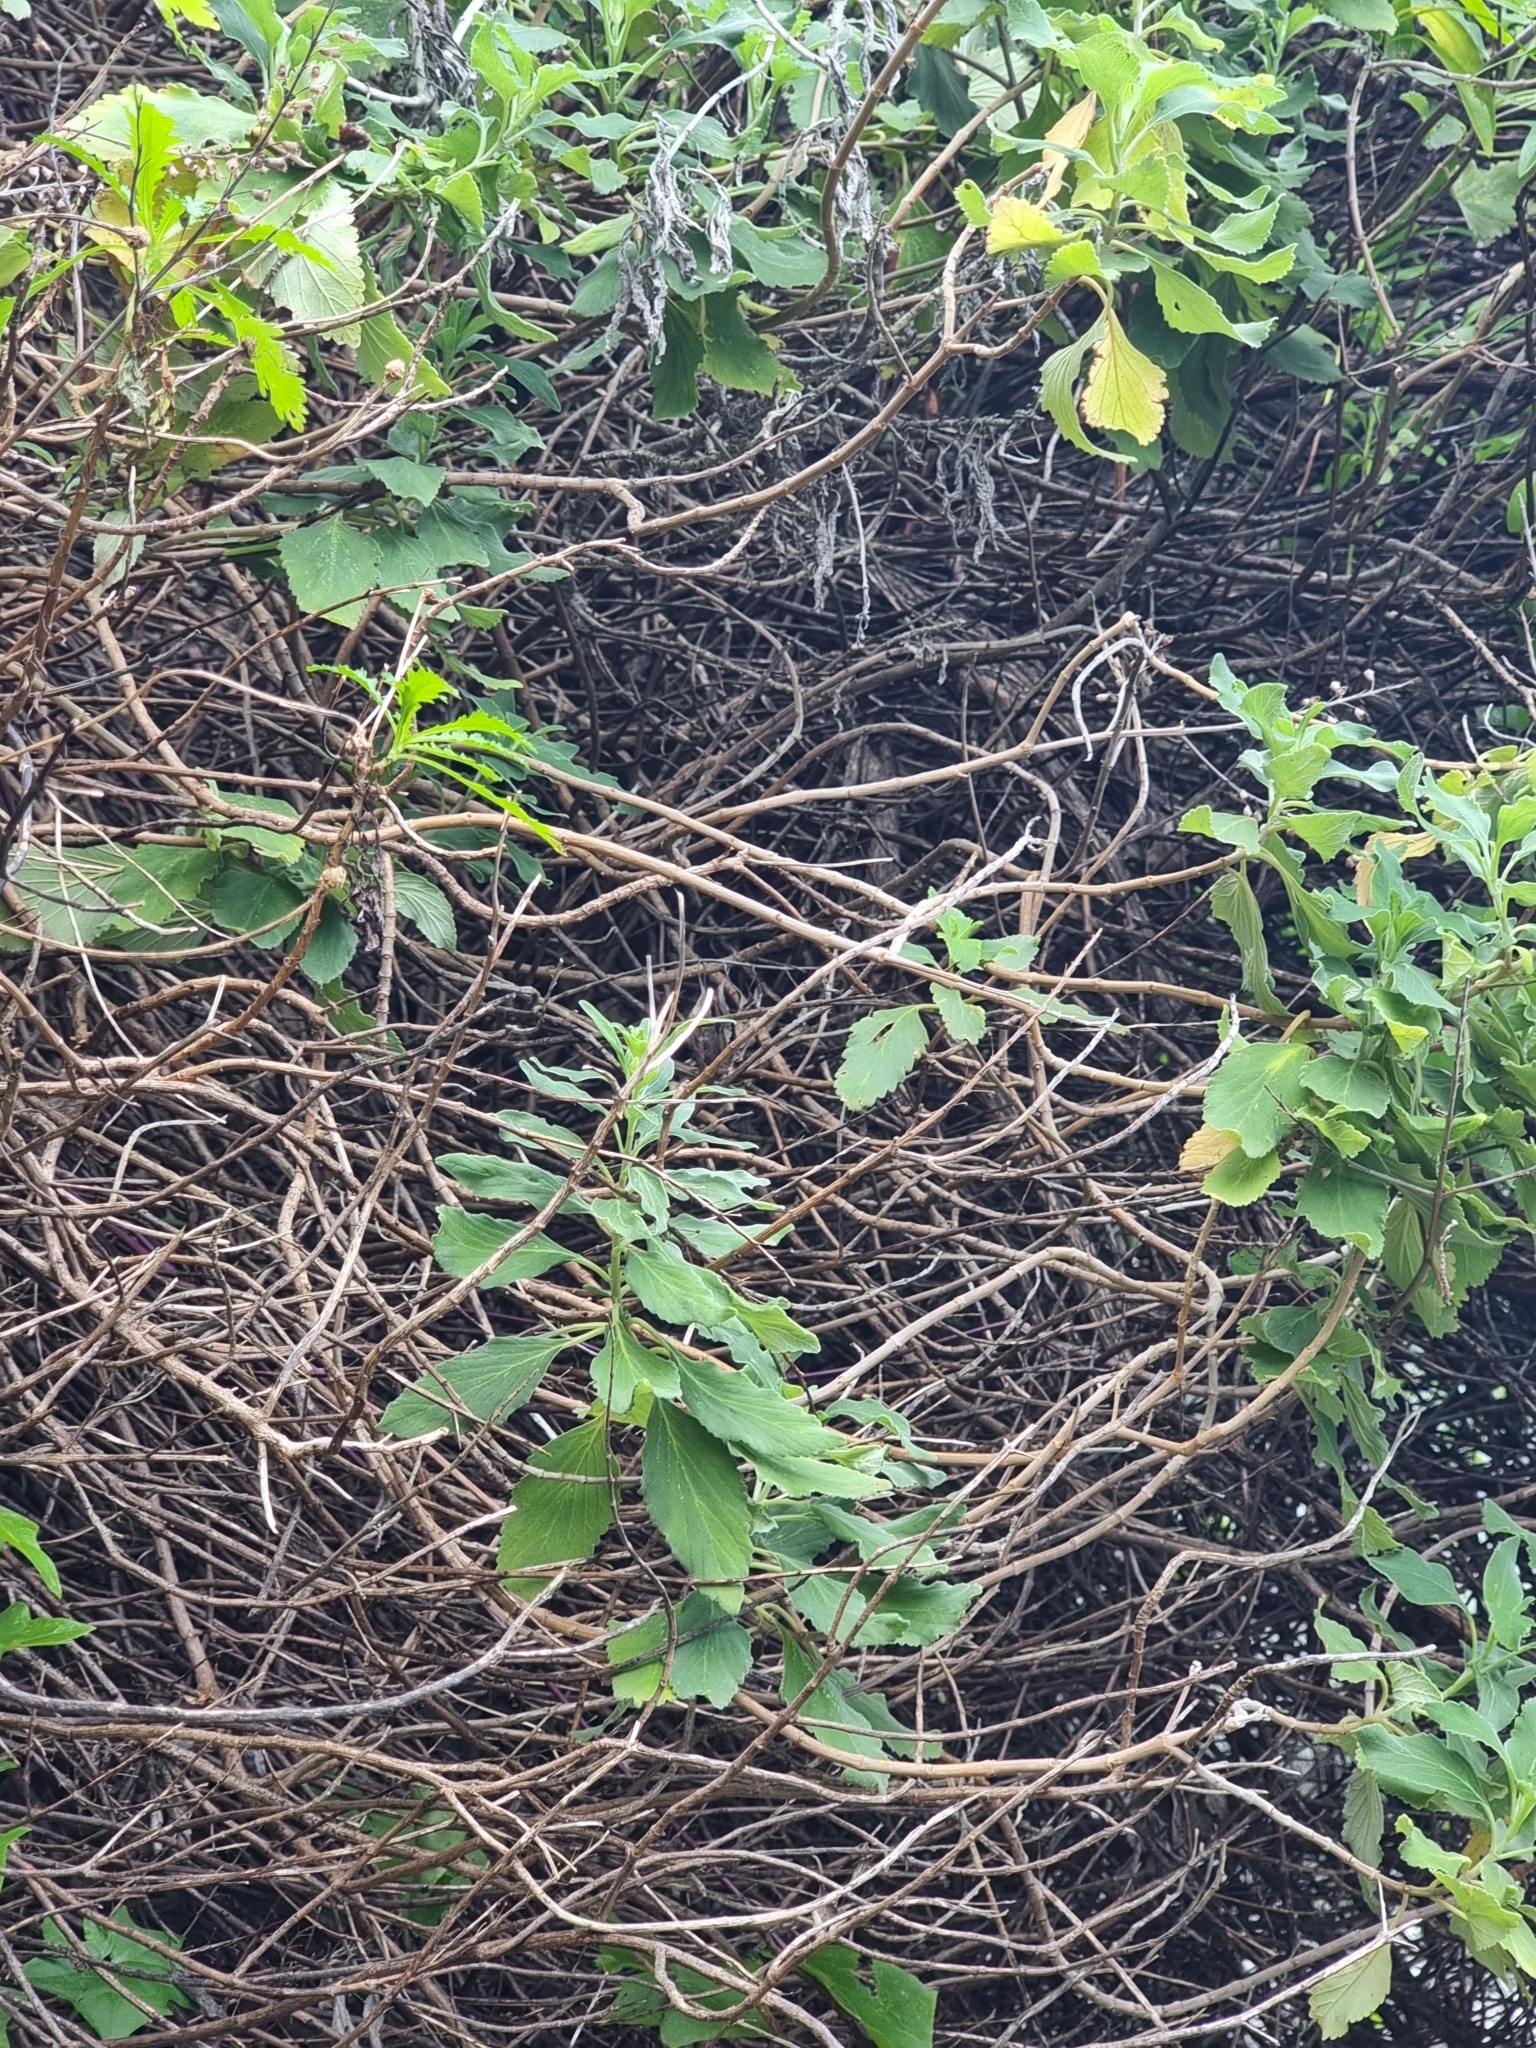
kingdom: Plantae
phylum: Tracheophyta
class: Magnoliopsida
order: Lamiales
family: Lamiaceae
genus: Teucrium
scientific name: Teucrium betonicum
